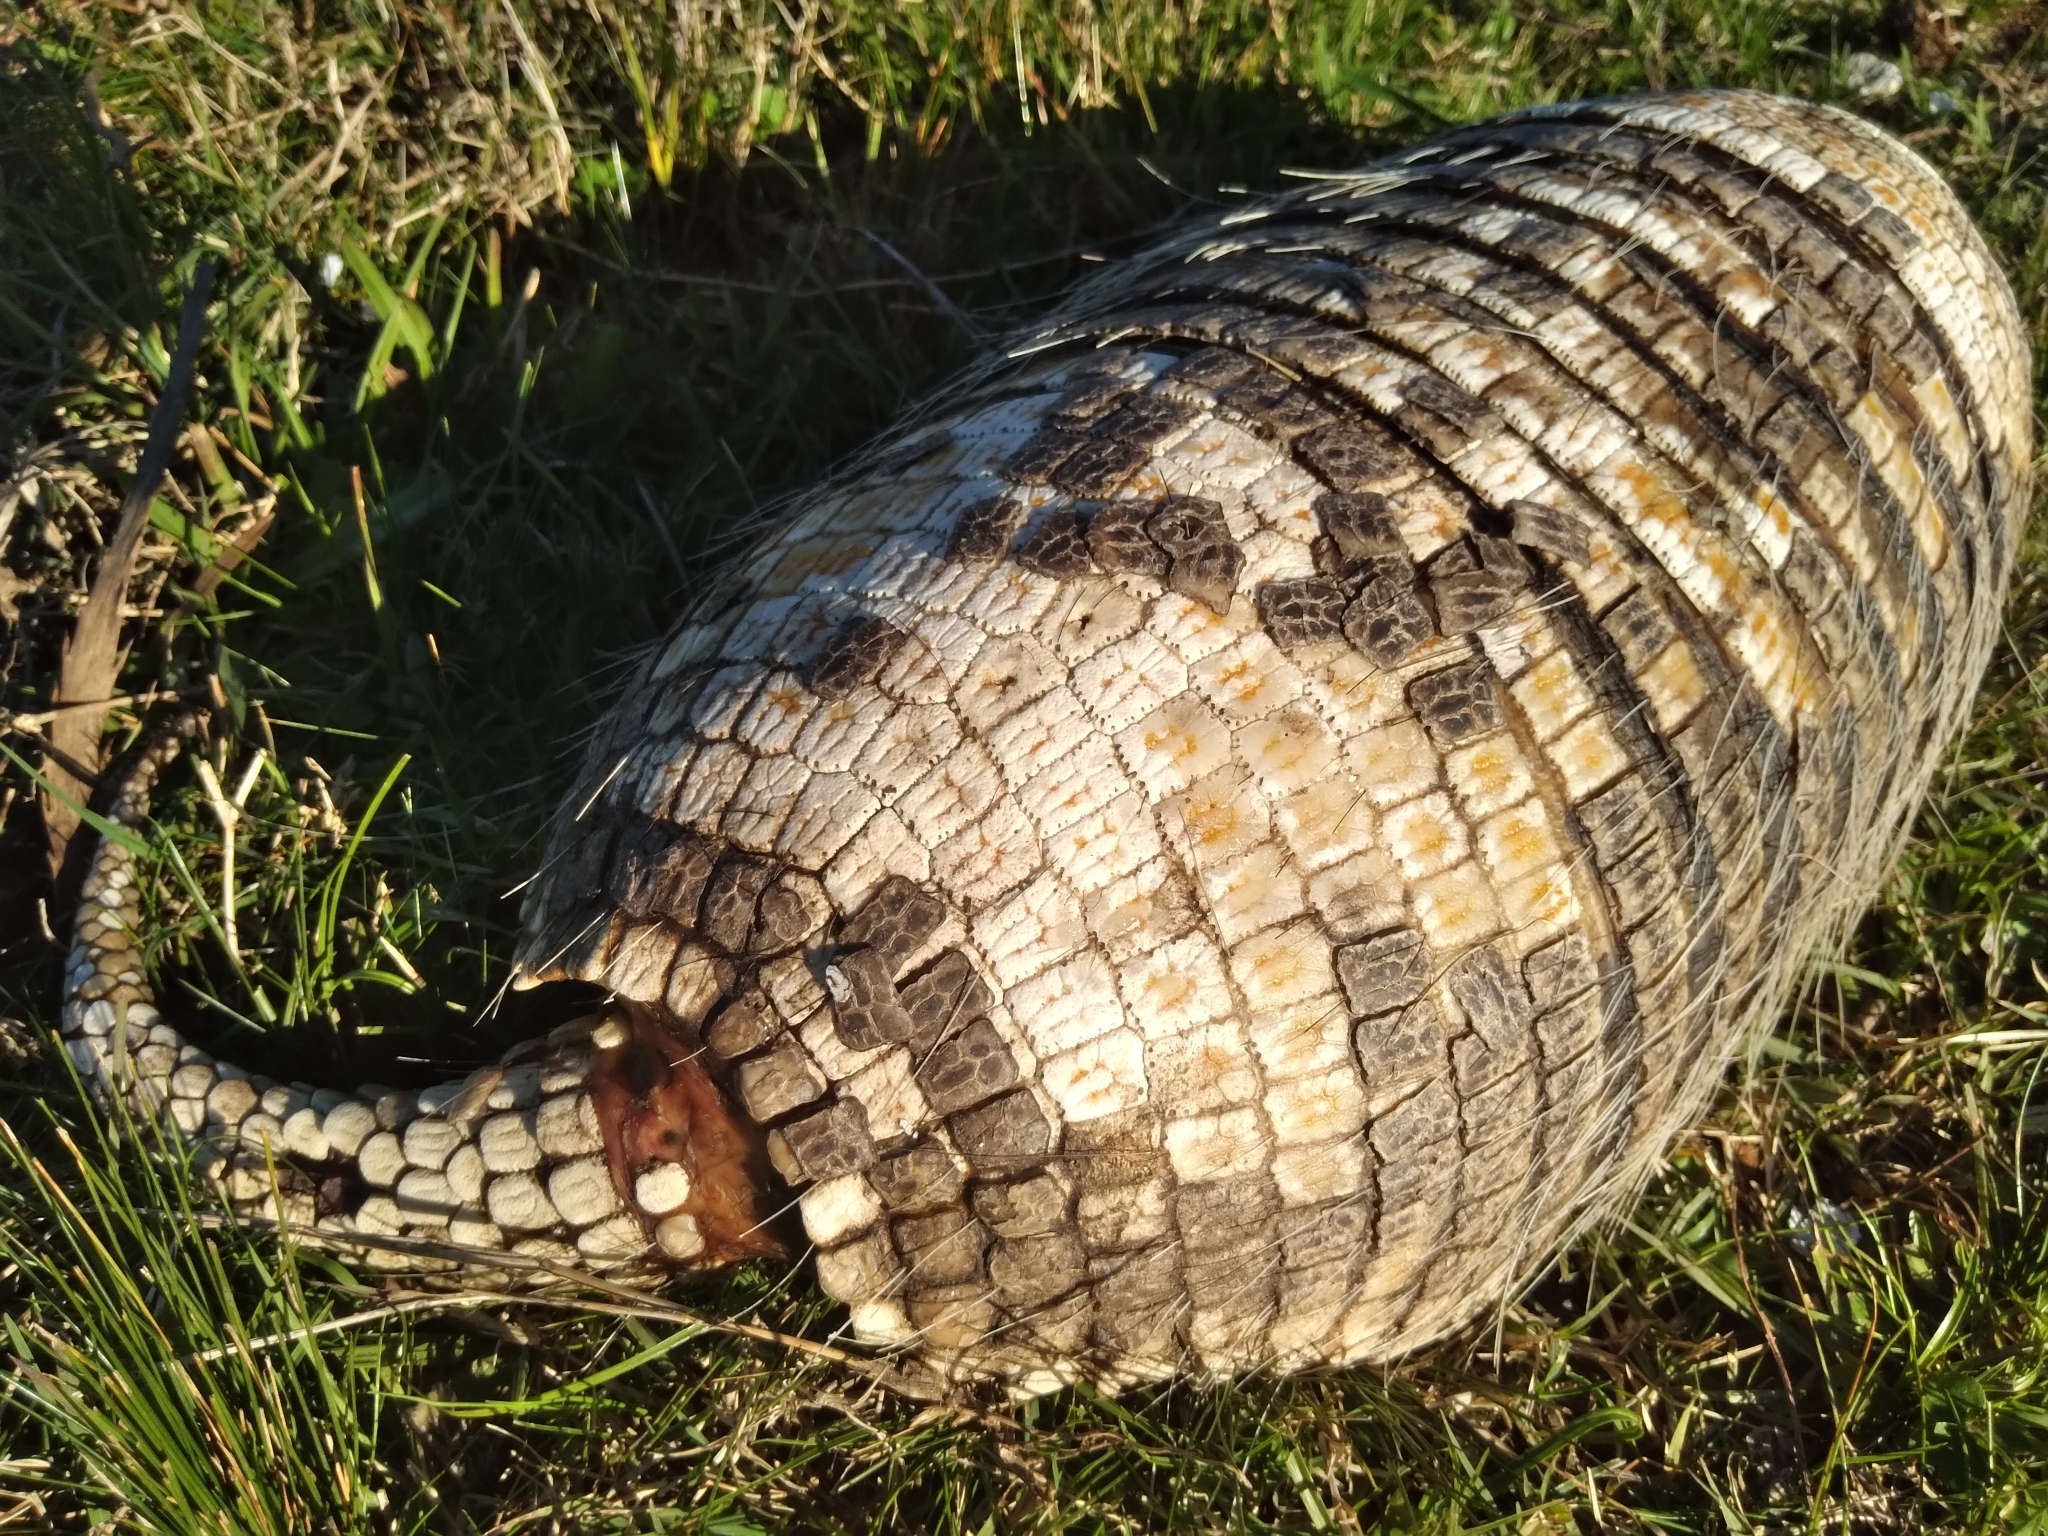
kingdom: Animalia
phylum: Chordata
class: Mammalia
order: Cingulata
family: Dasypodidae
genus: Euphractus
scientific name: Euphractus sexcinctus
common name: Six-banded armadillo
